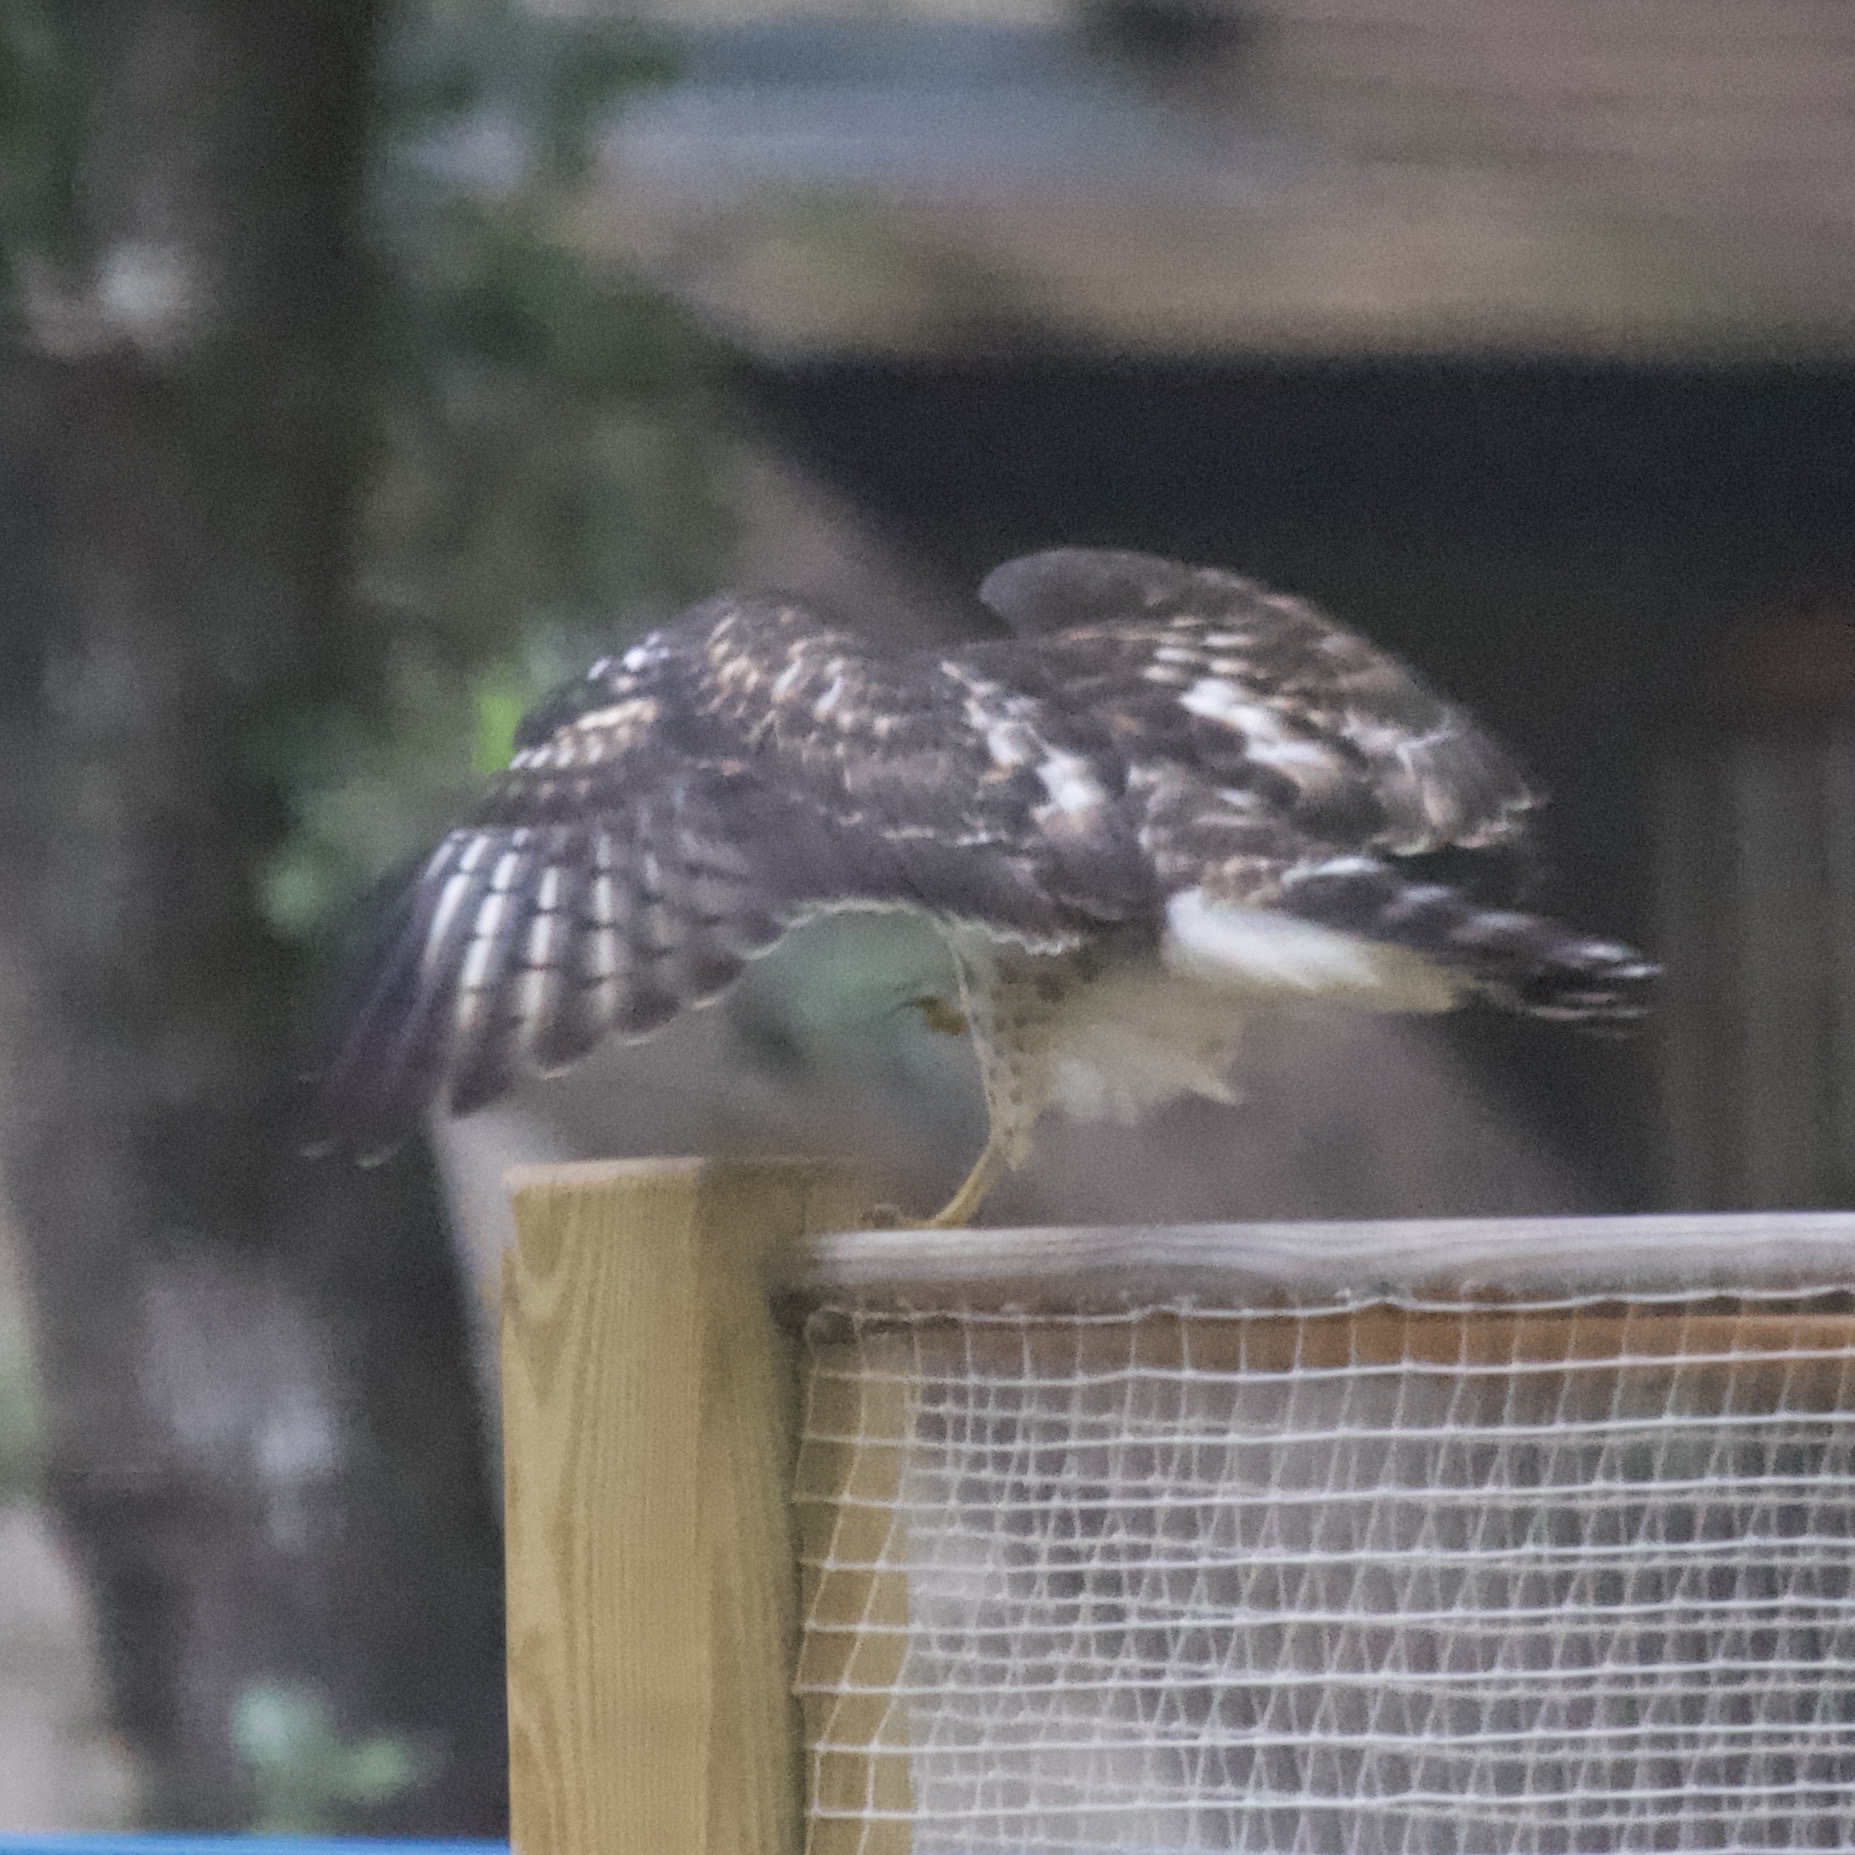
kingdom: Animalia
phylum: Chordata
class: Aves
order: Accipitriformes
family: Accipitridae
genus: Buteo
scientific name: Buteo platypterus
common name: Broad-winged hawk
